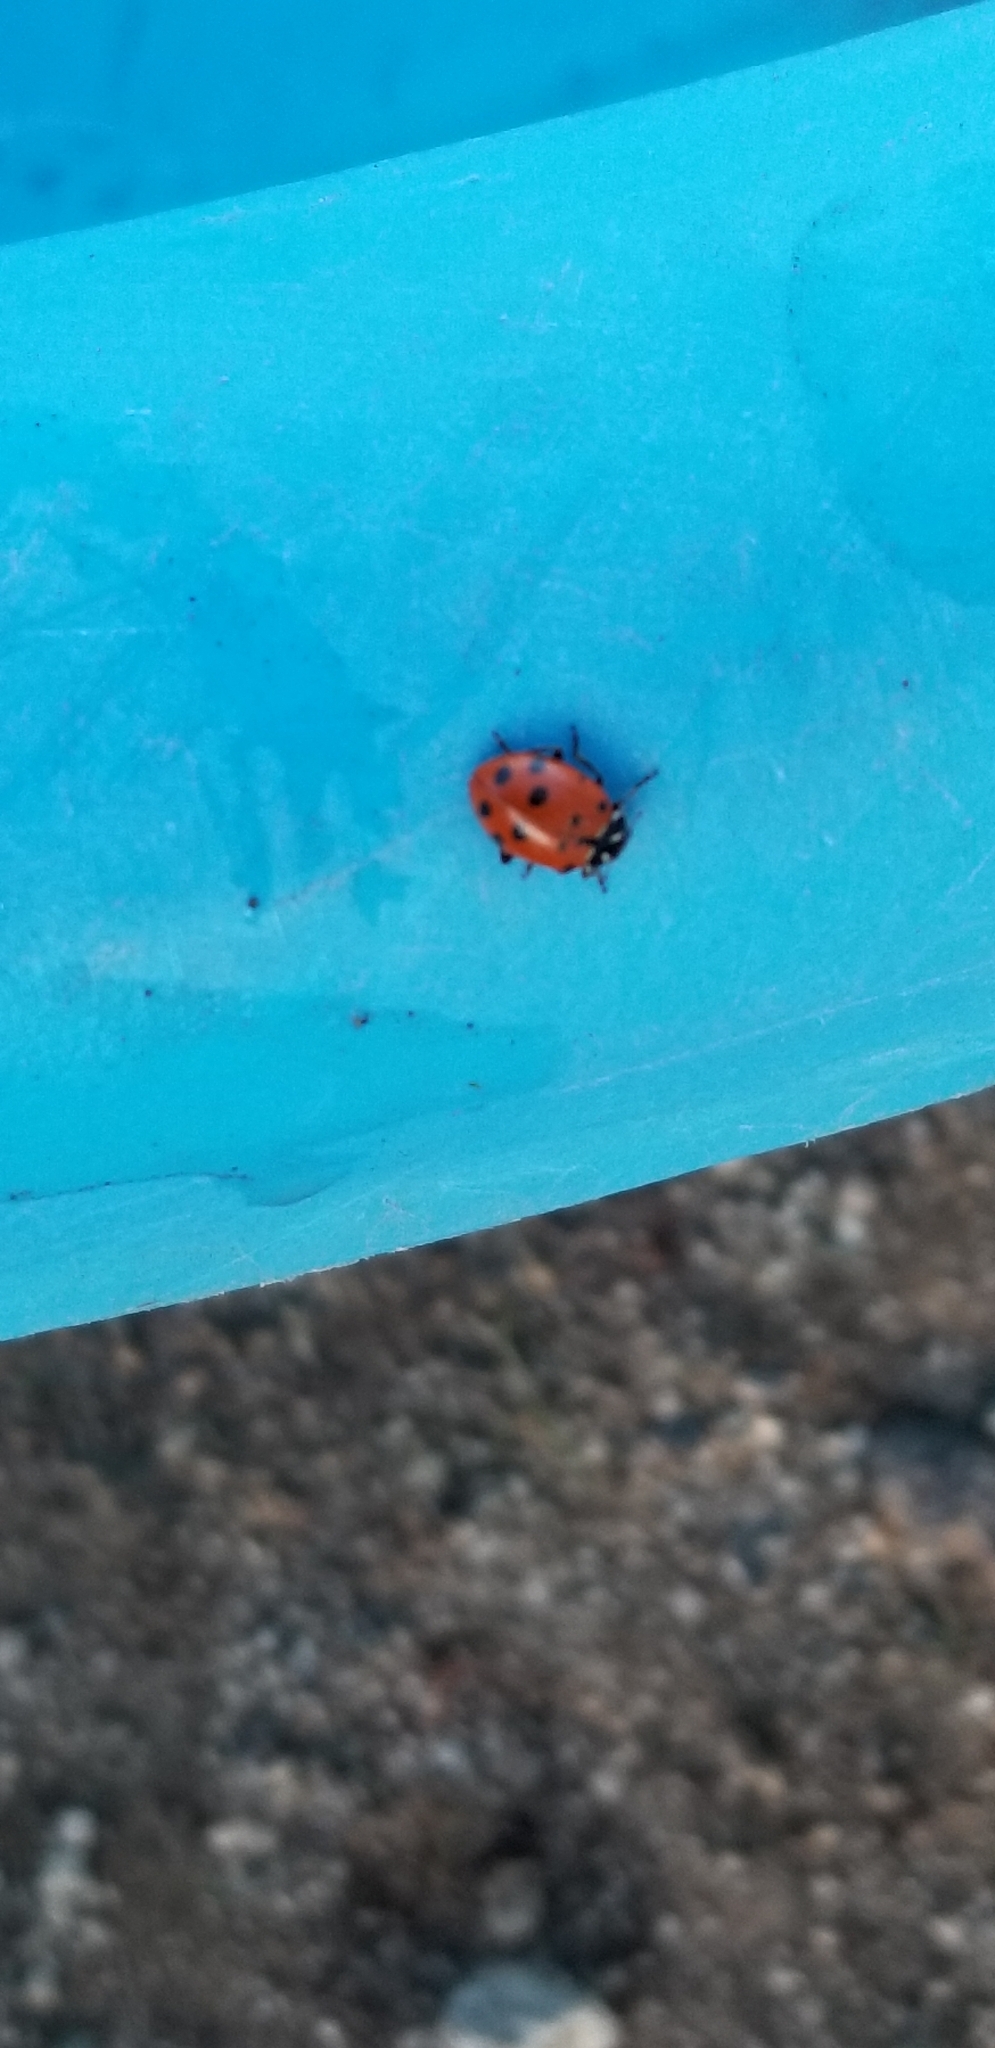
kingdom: Animalia
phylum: Arthropoda
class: Insecta
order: Coleoptera
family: Coccinellidae
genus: Hippodamia
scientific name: Hippodamia convergens
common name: Convergent lady beetle
